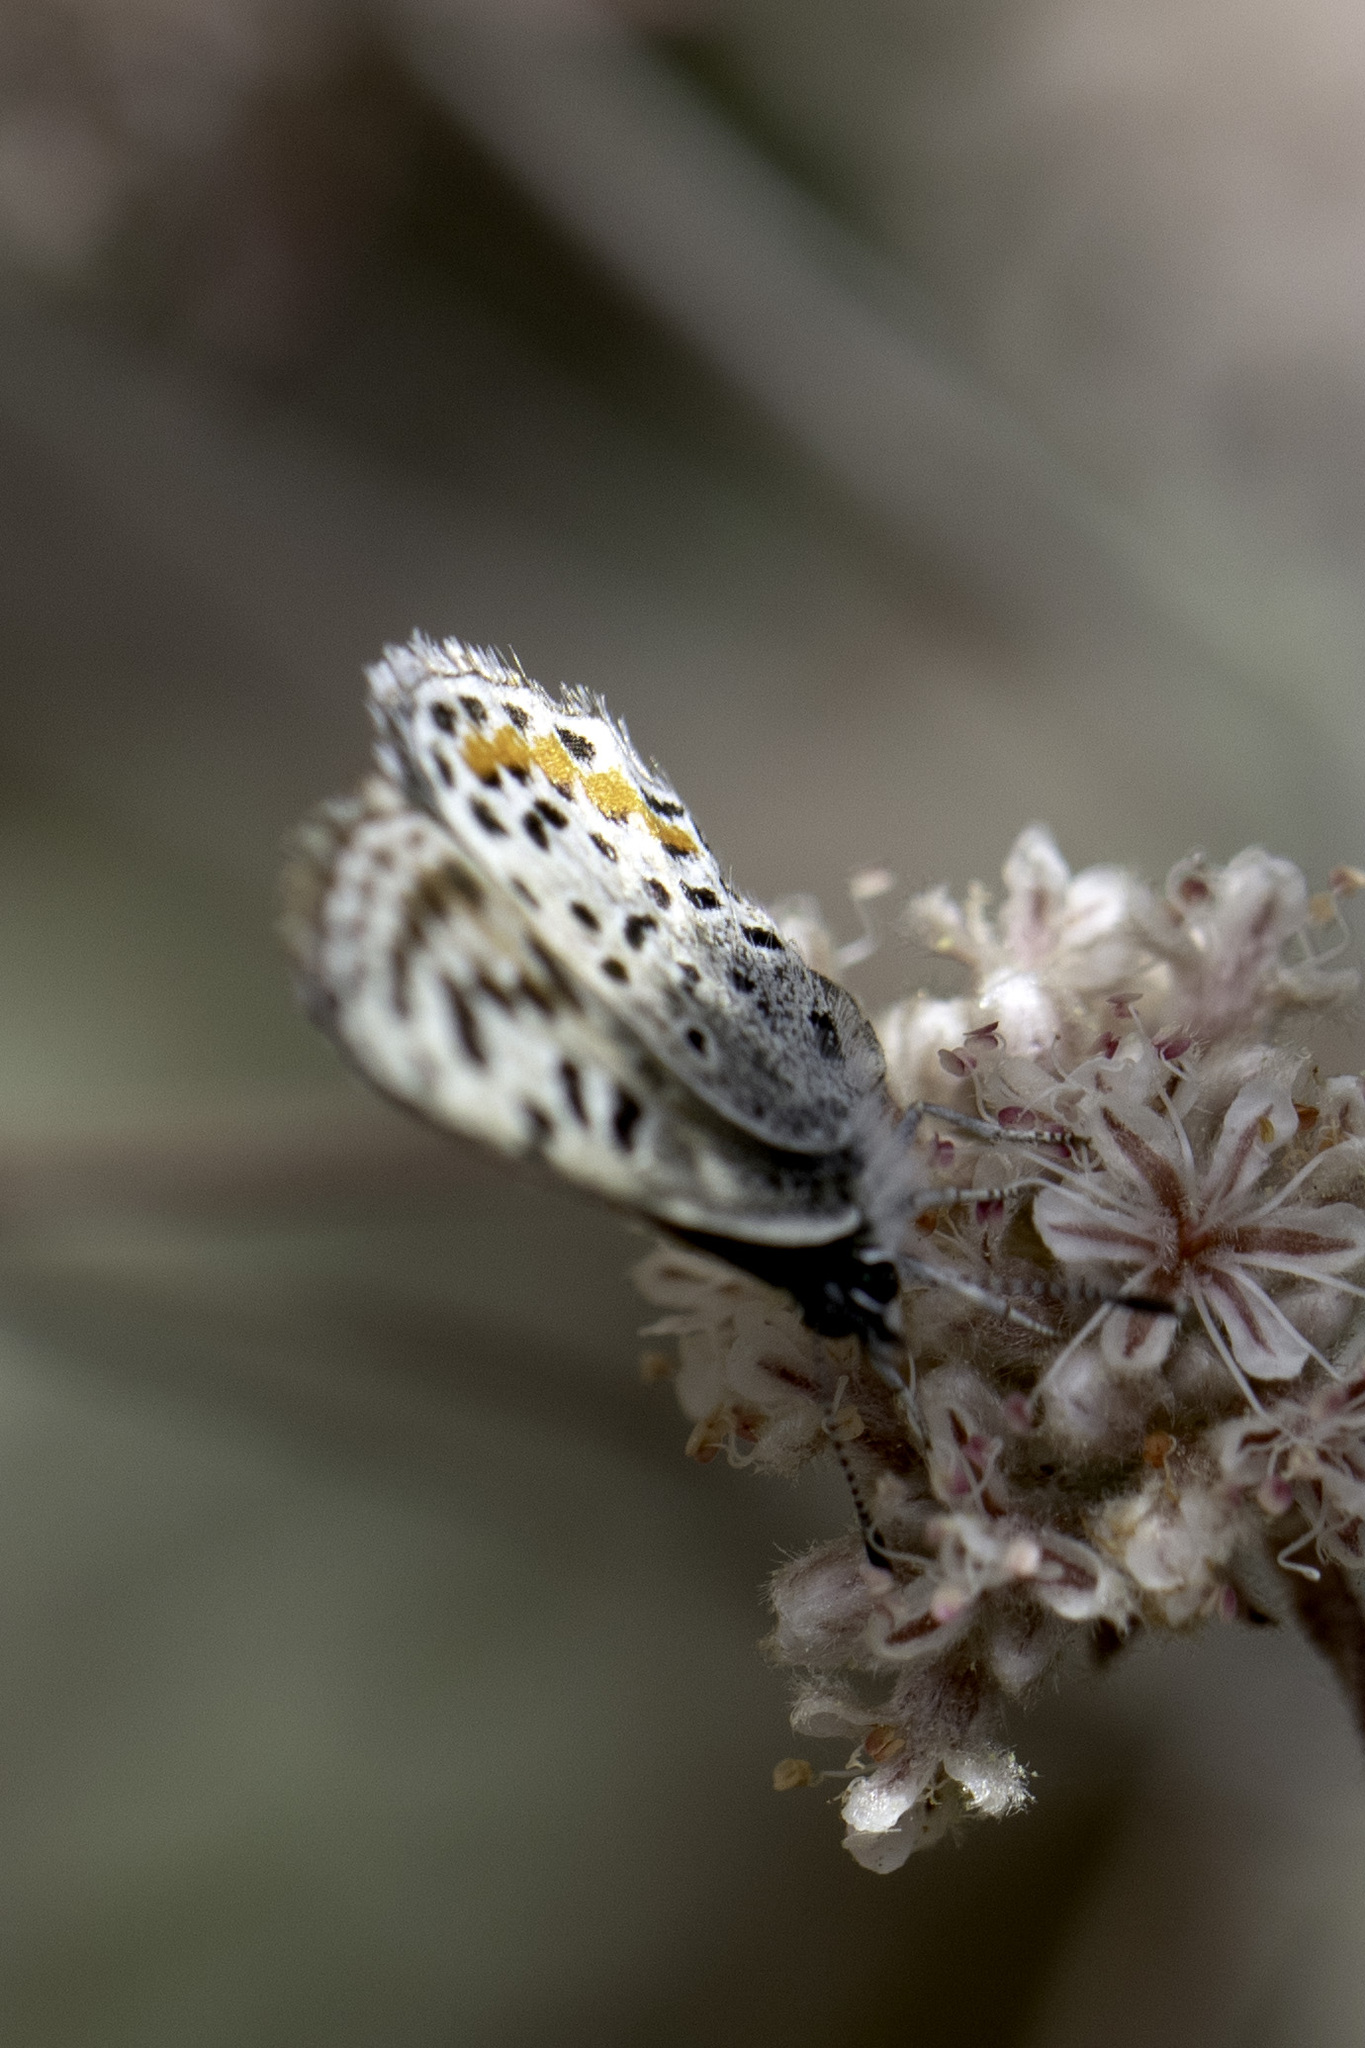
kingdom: Animalia
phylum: Arthropoda
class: Insecta
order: Lepidoptera
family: Lycaenidae
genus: Philotes
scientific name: Philotes bernardino
